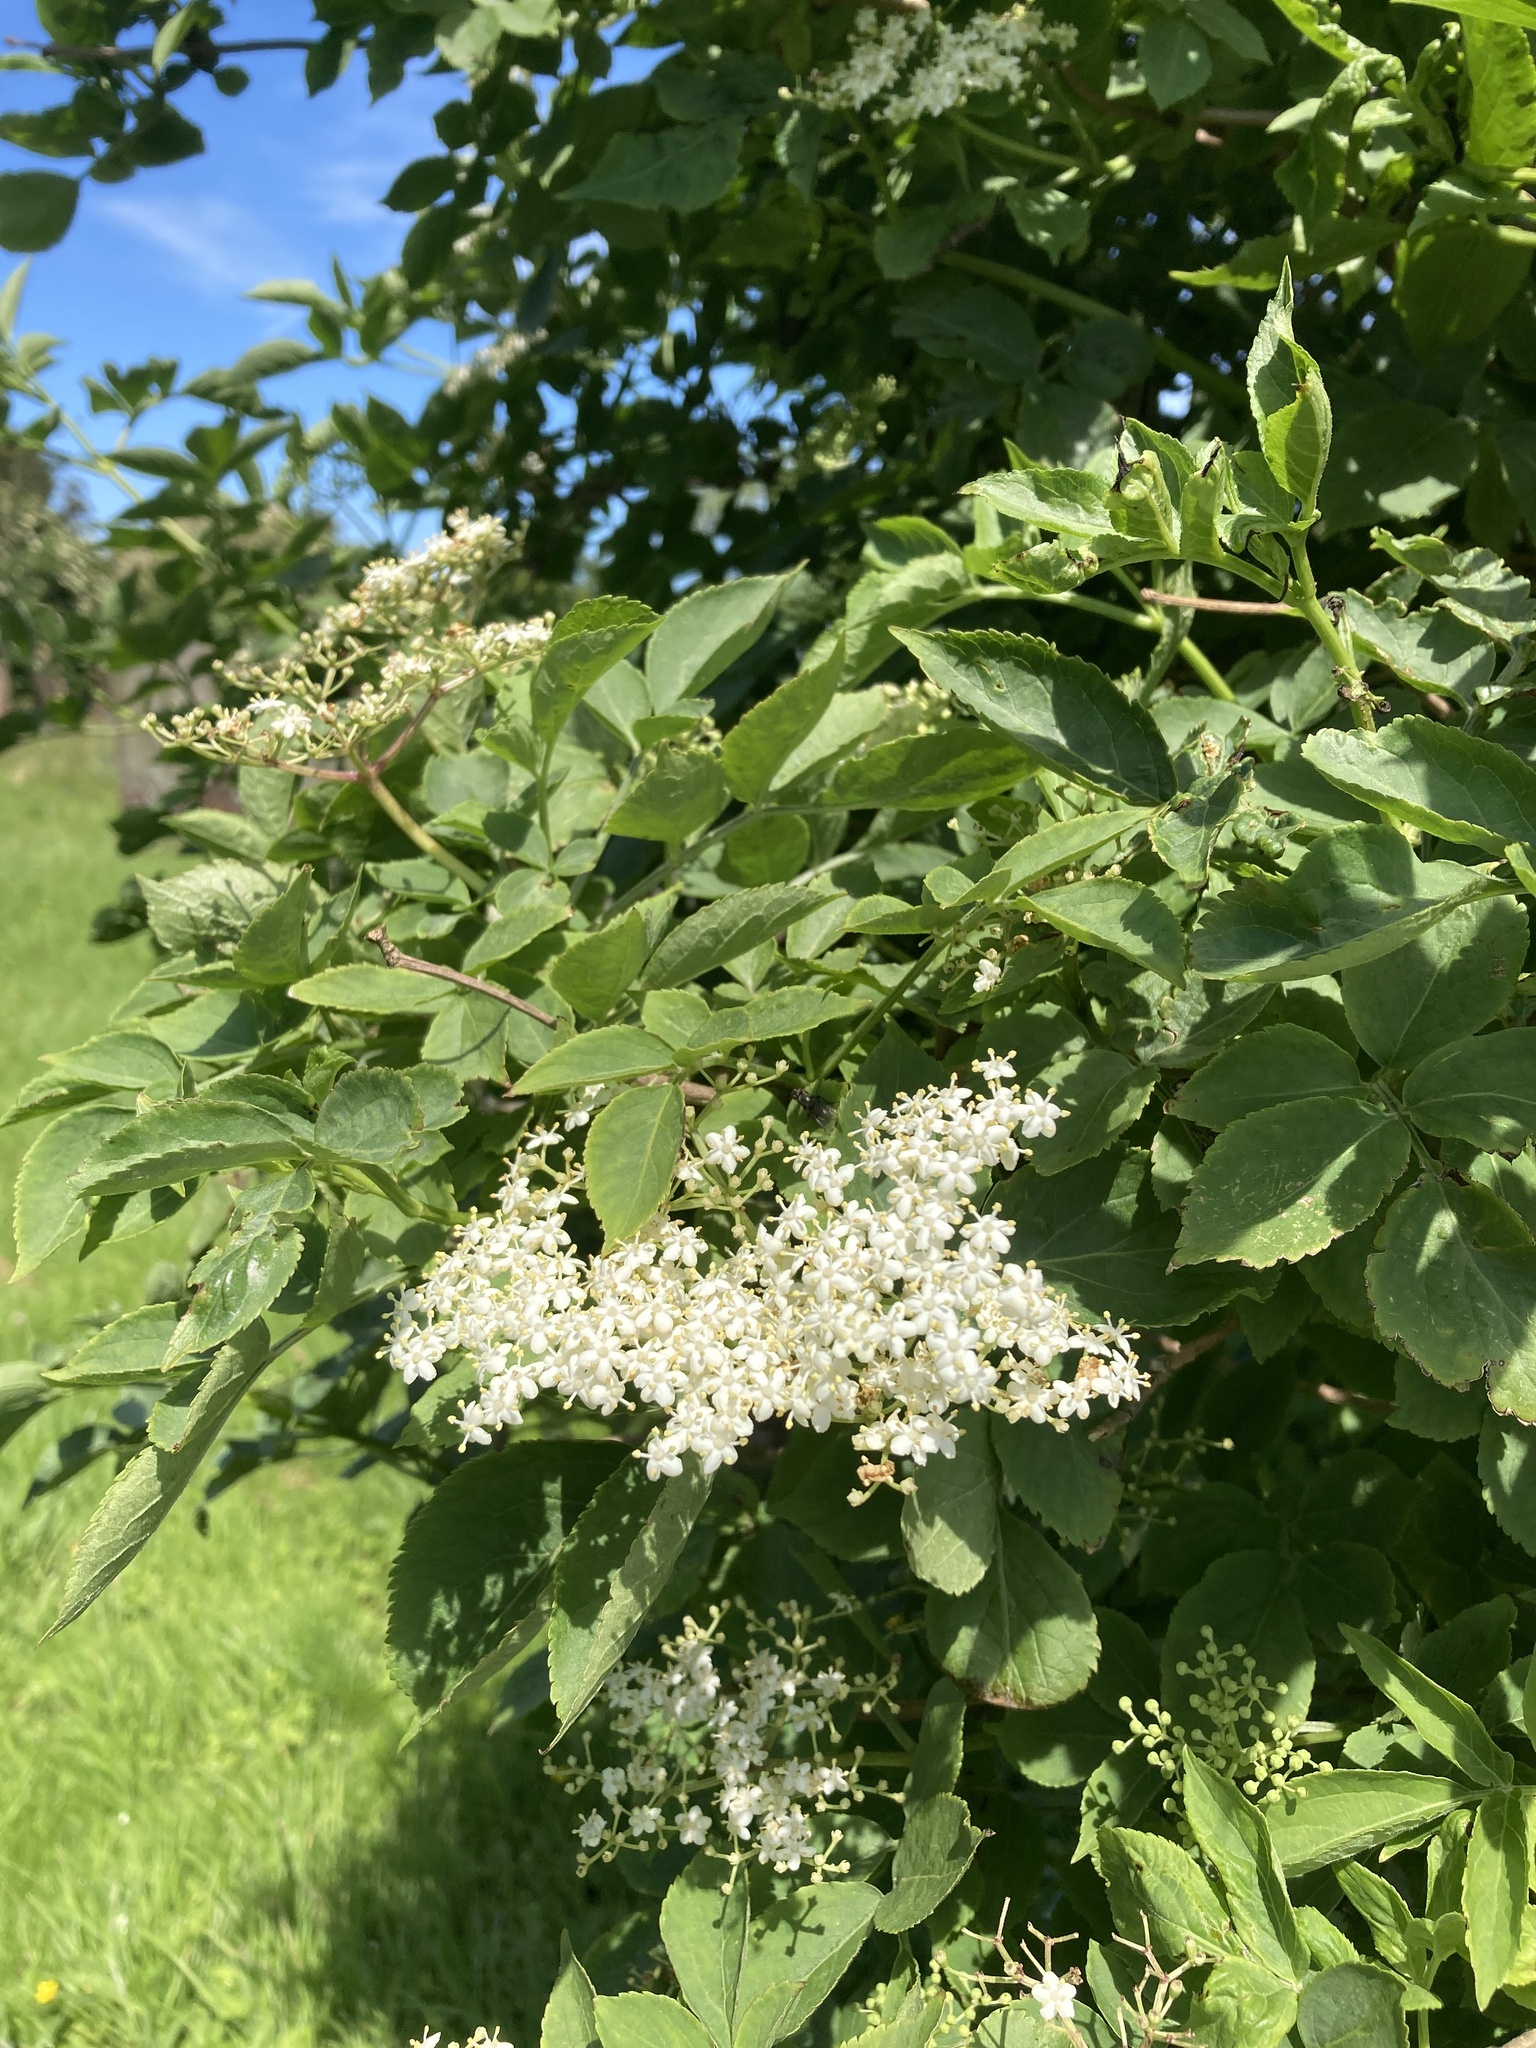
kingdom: Plantae
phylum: Tracheophyta
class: Magnoliopsida
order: Dipsacales
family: Viburnaceae
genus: Sambucus
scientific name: Sambucus nigra
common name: Elder
